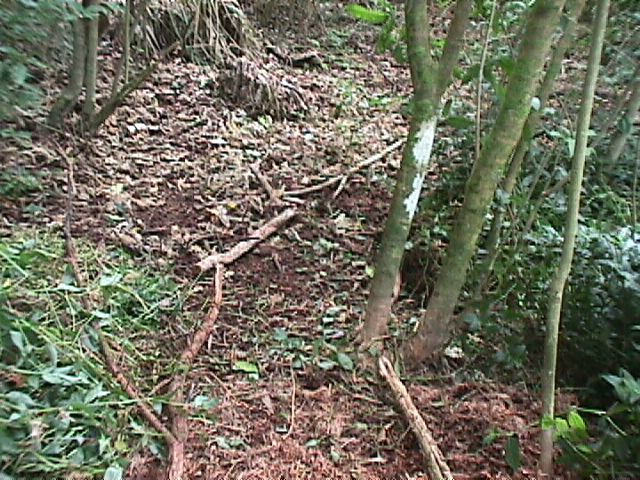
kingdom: Plantae
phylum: Tracheophyta
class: Liliopsida
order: Commelinales
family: Commelinaceae
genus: Tradescantia
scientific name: Tradescantia fluminensis
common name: Wandering-jew
